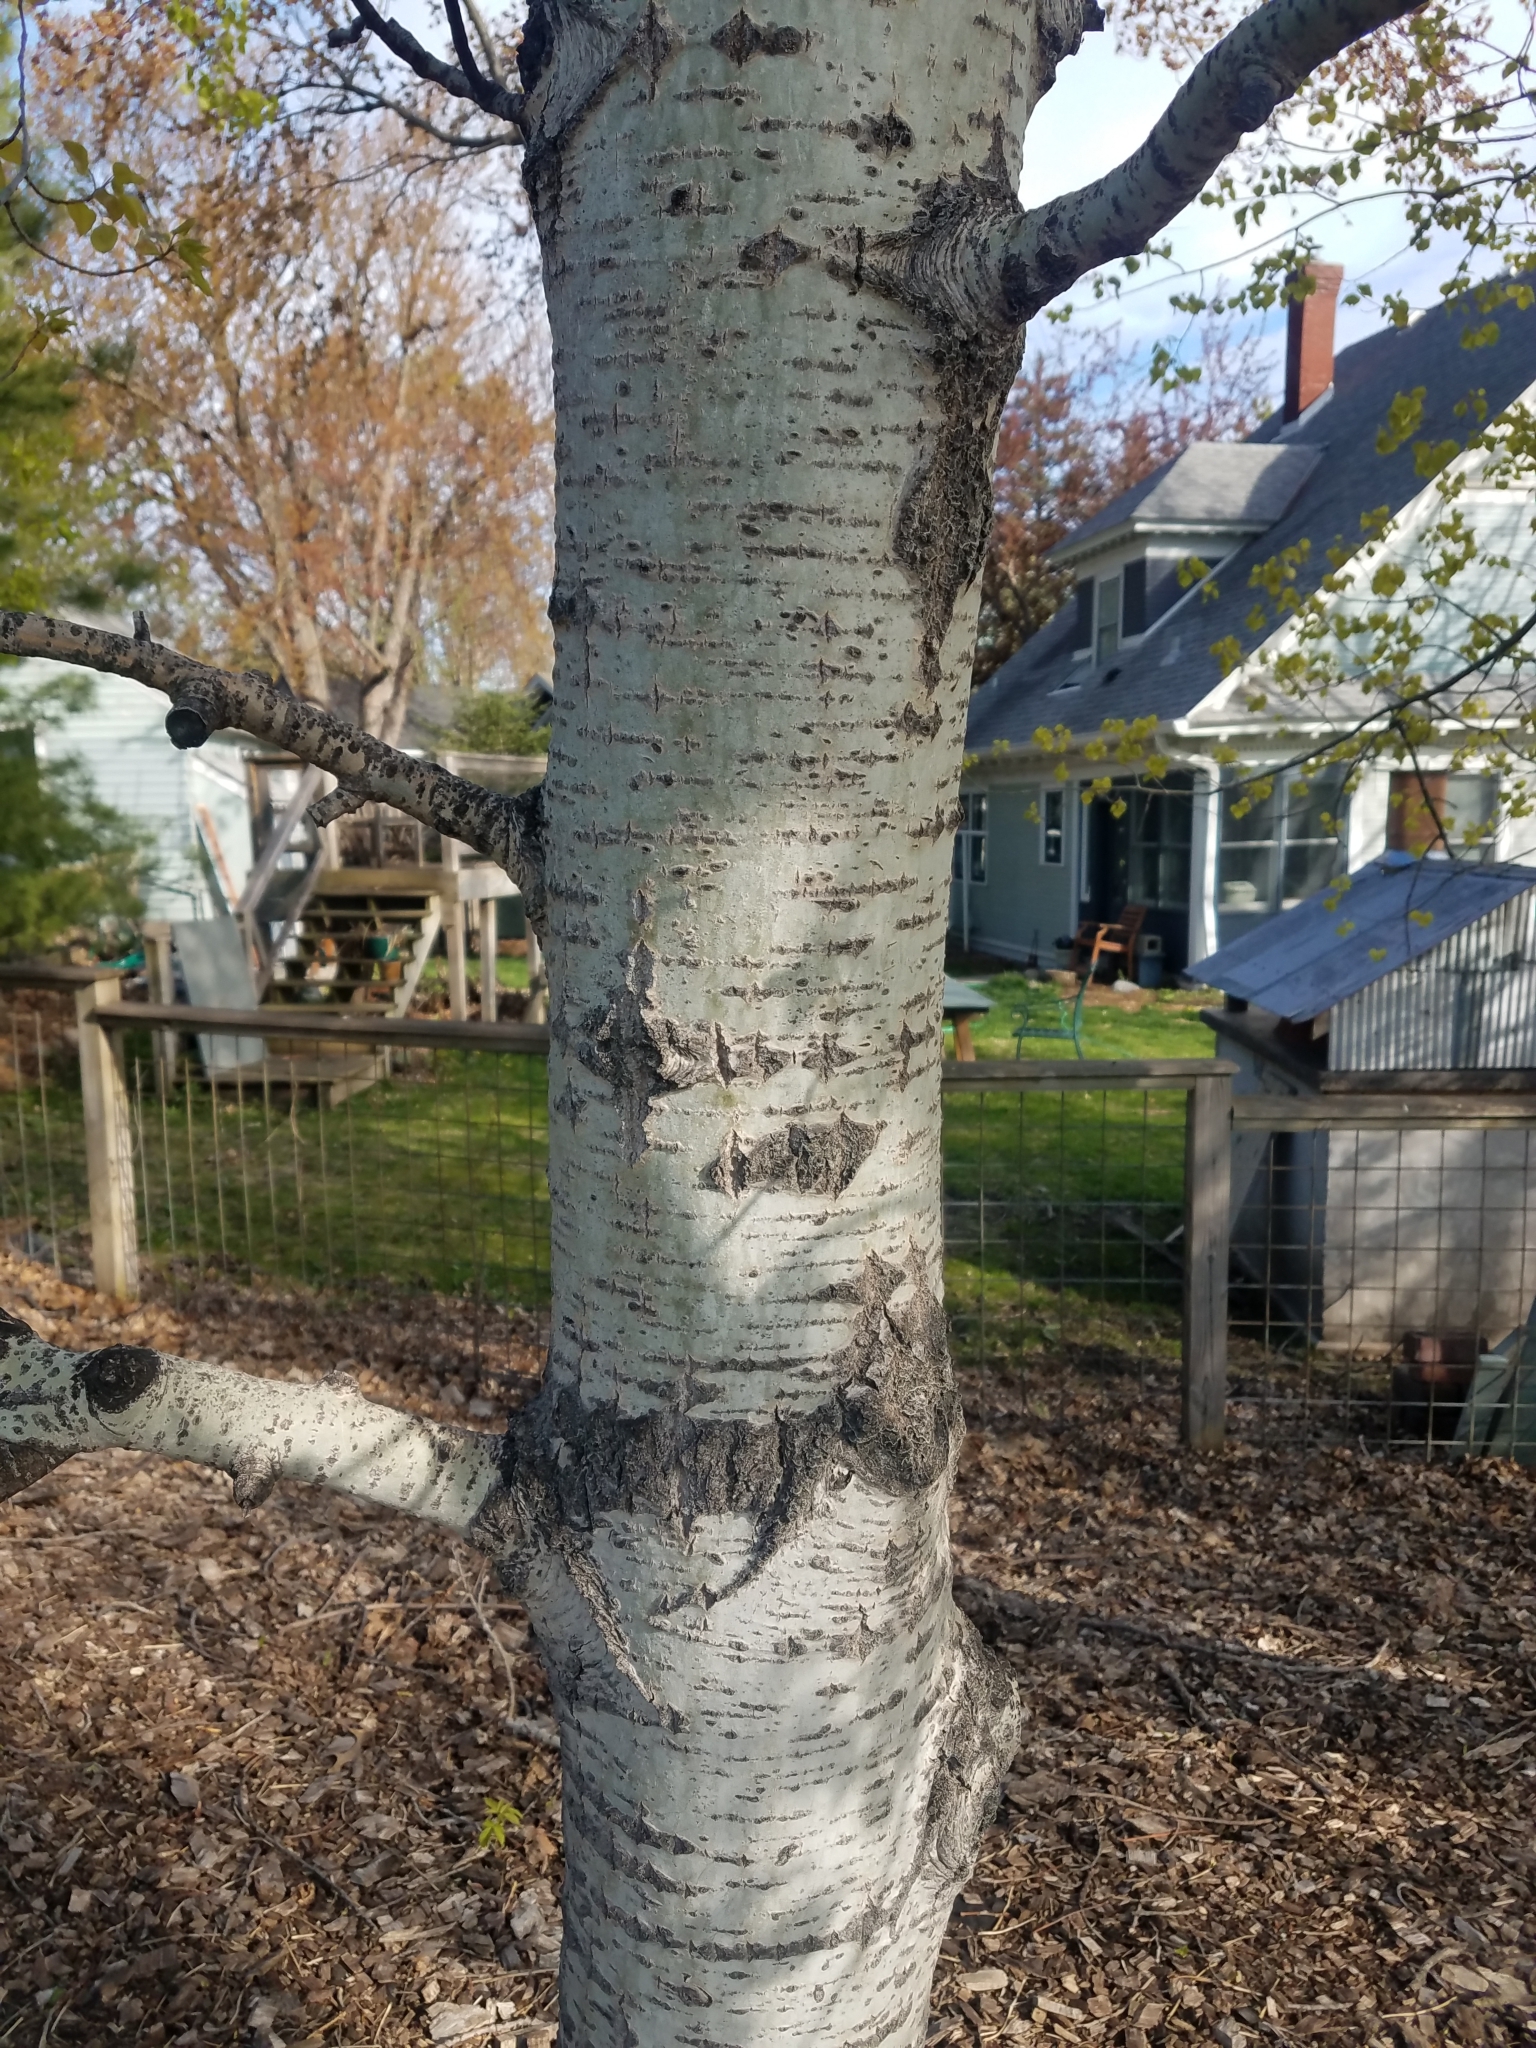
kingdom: Plantae
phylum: Tracheophyta
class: Magnoliopsida
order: Malpighiales
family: Salicaceae
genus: Populus
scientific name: Populus tremuloides
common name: Quaking aspen
